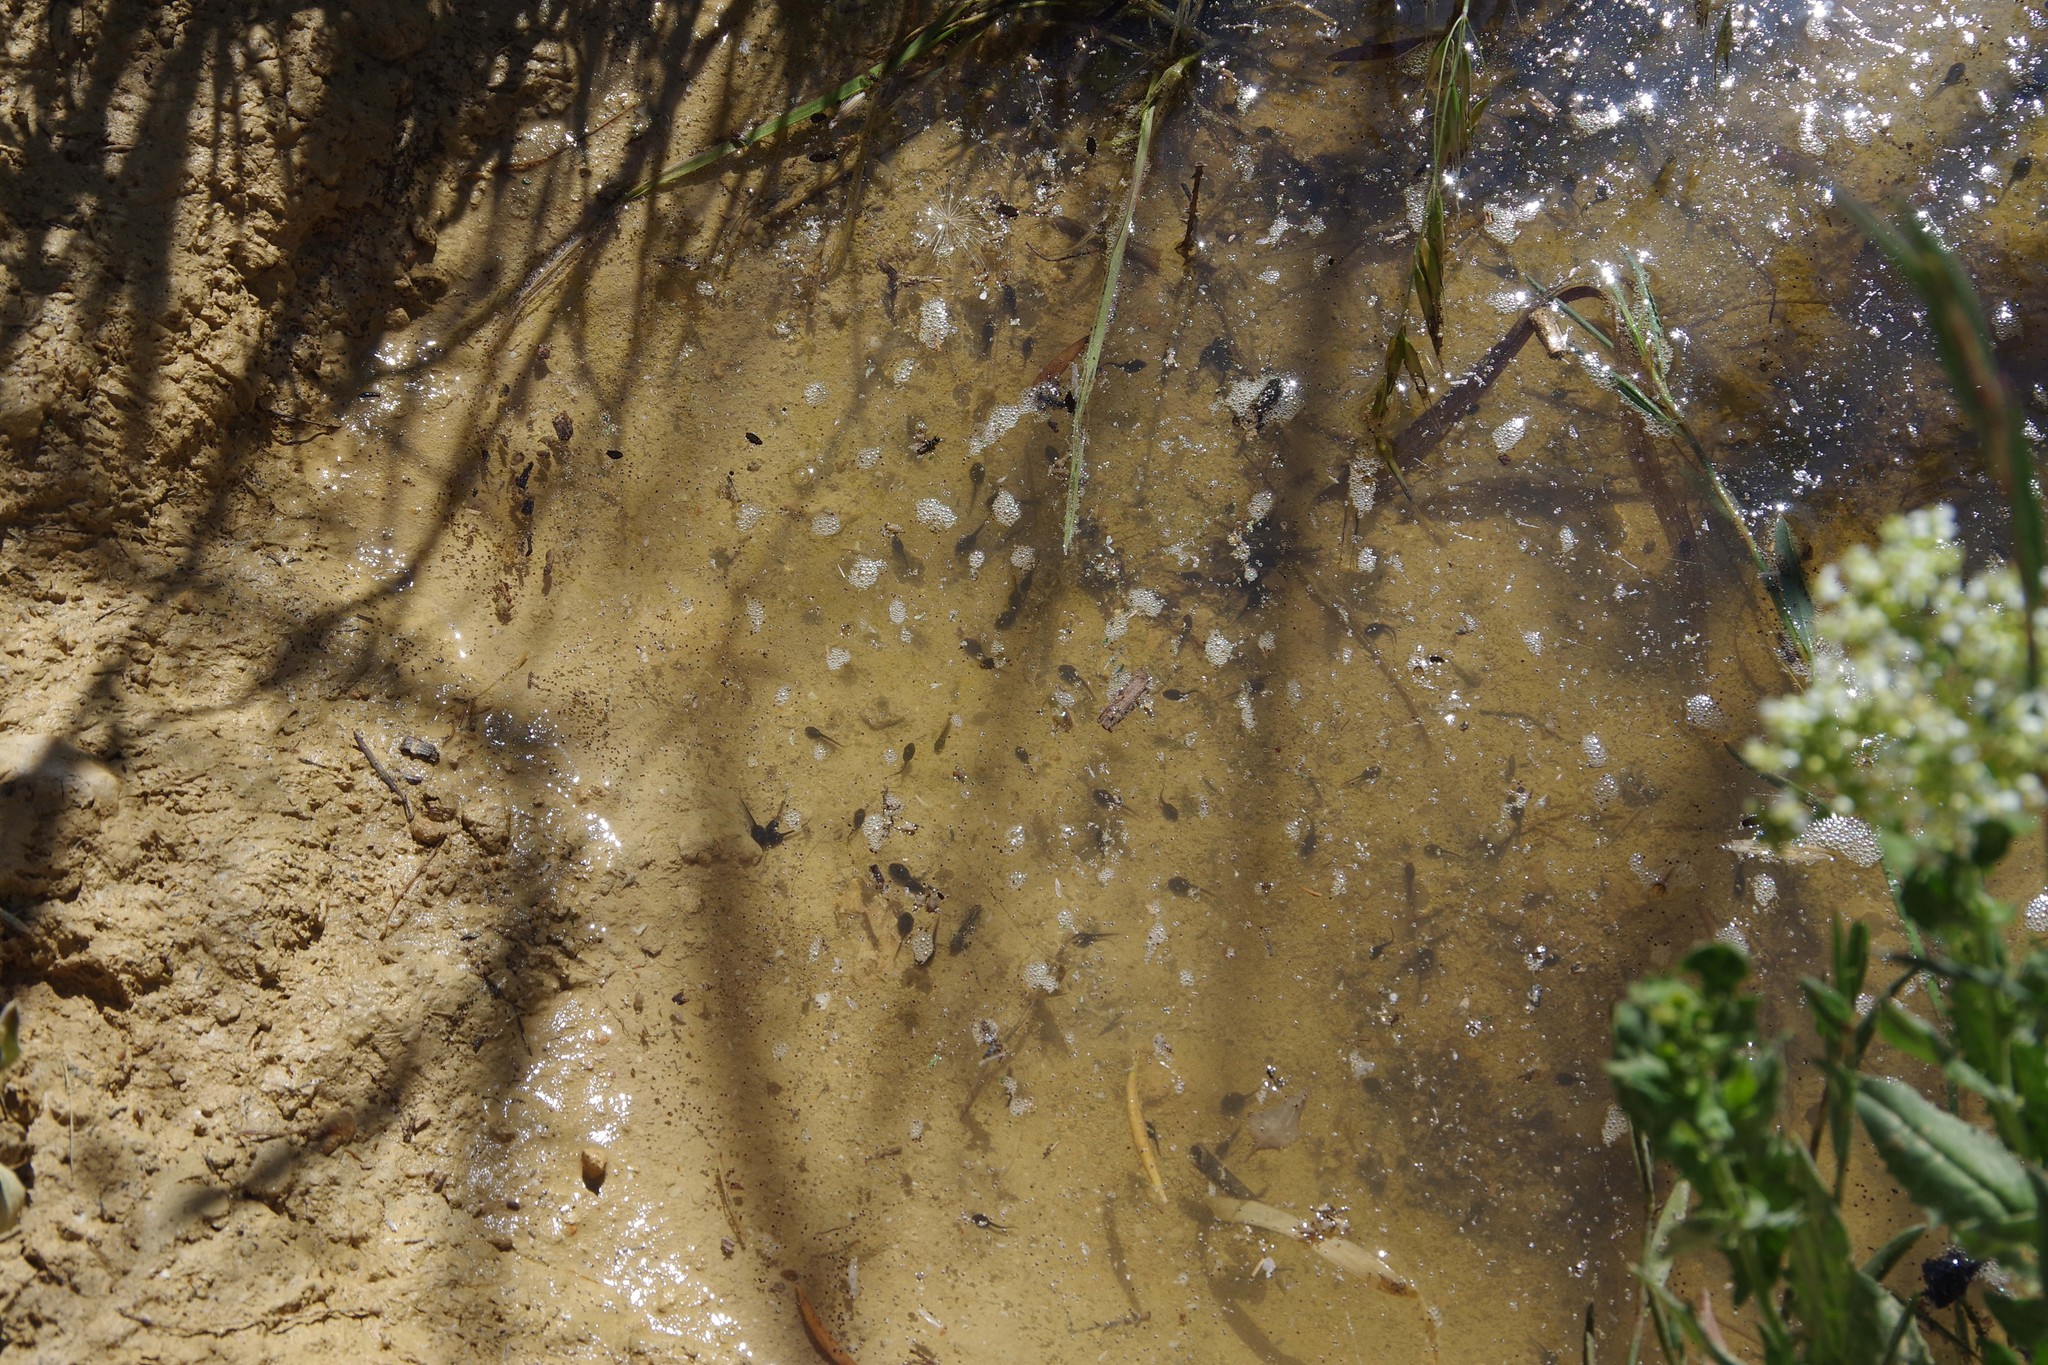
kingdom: Animalia
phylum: Chordata
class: Amphibia
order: Anura
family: Bufonidae
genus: Bufotes
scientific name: Bufotes viridis
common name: European green toad
